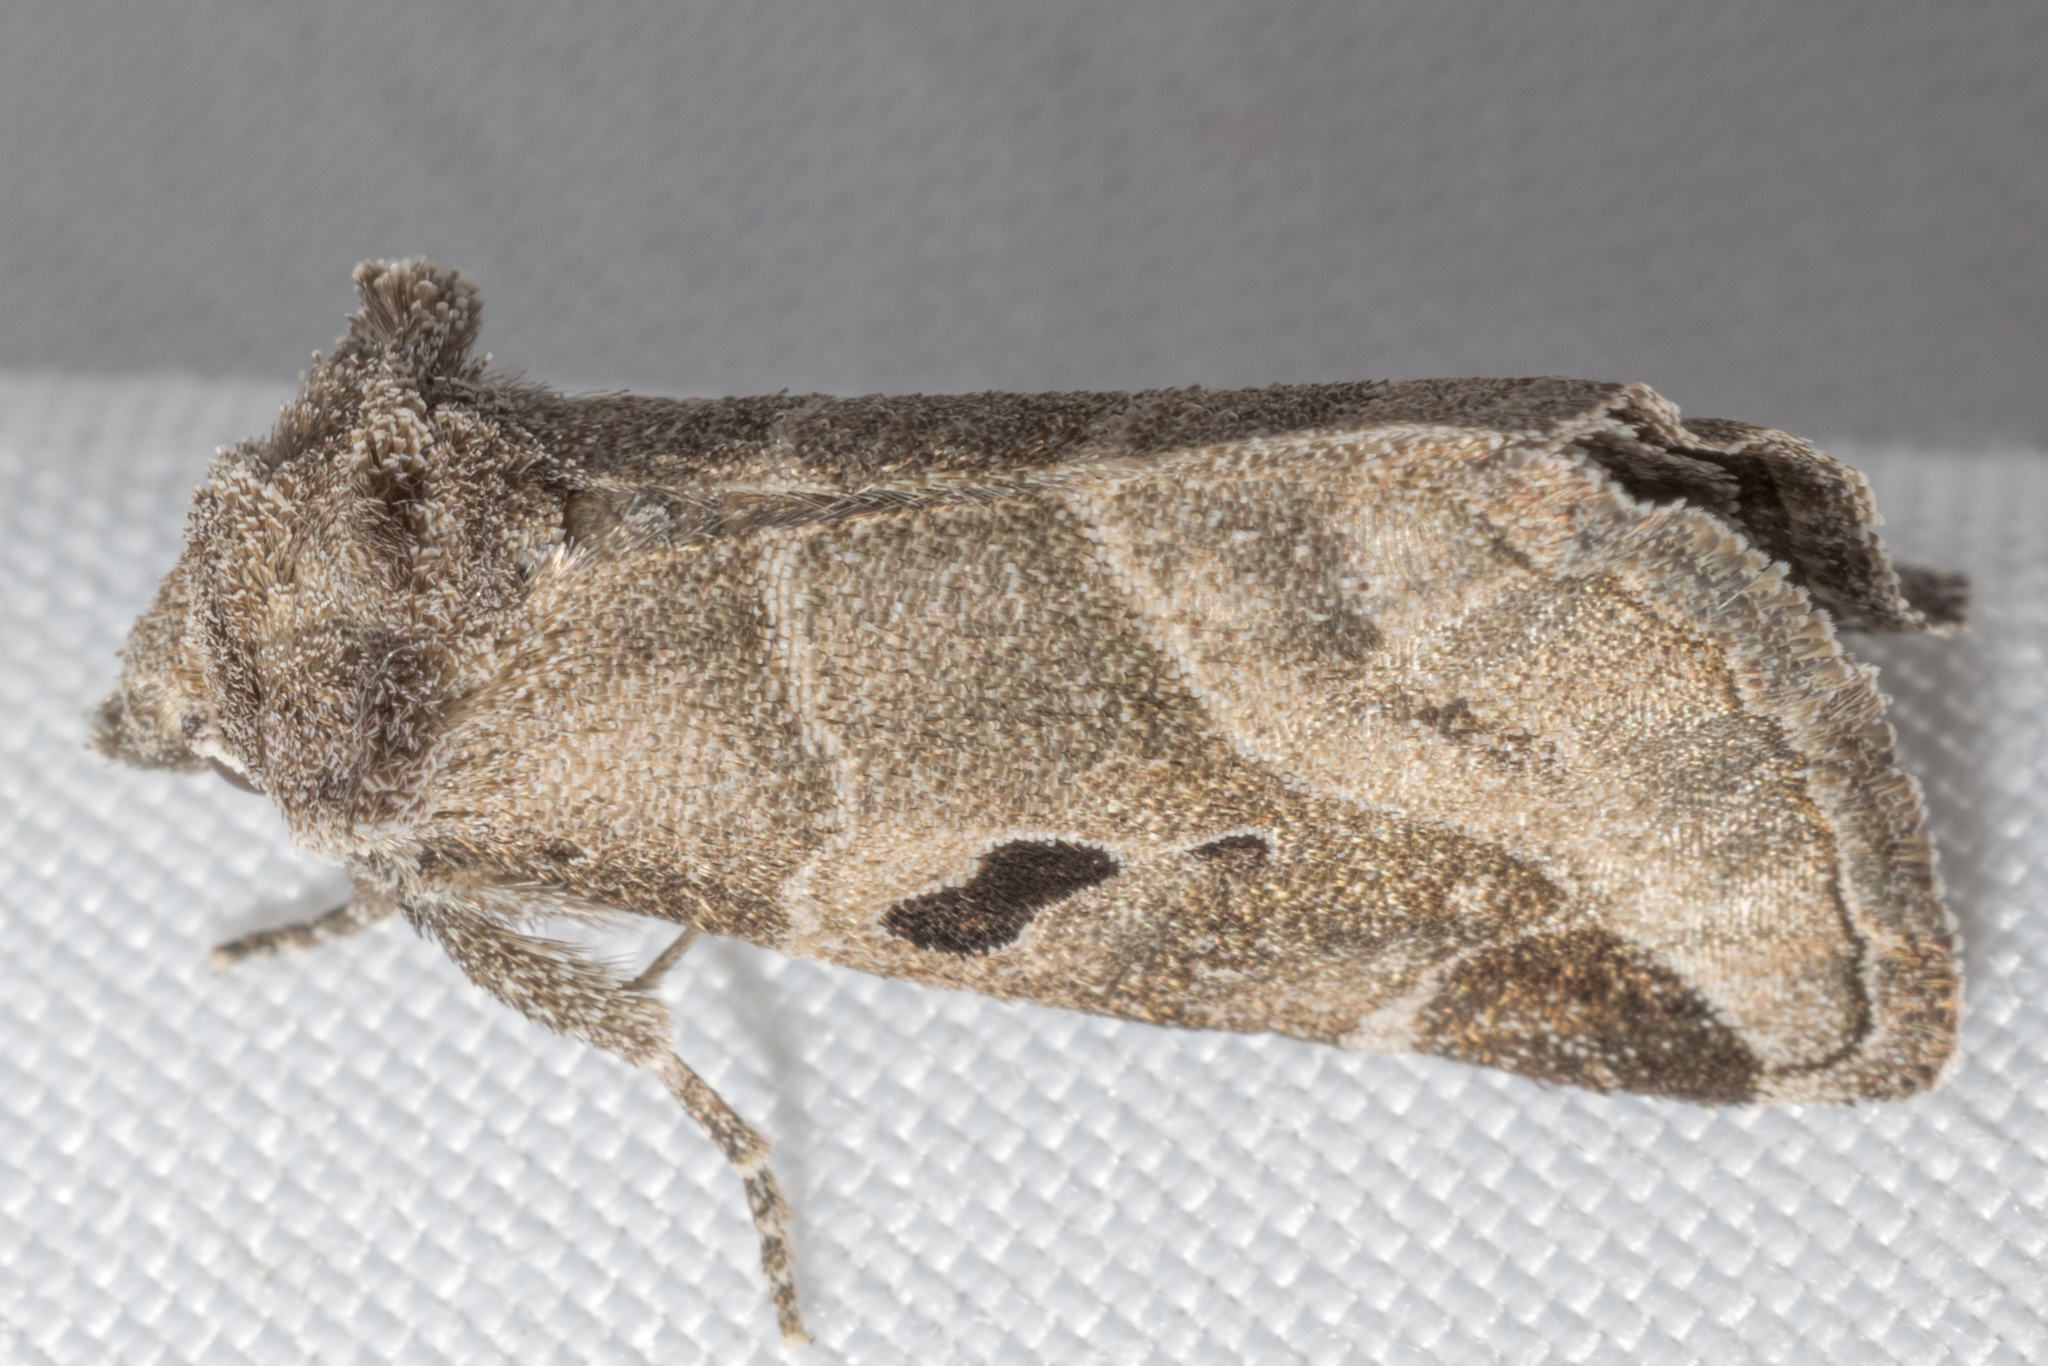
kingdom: Animalia
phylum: Arthropoda
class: Insecta
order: Lepidoptera
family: Noctuidae
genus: Plagiomimicus
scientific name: Plagiomimicus pityochromus
